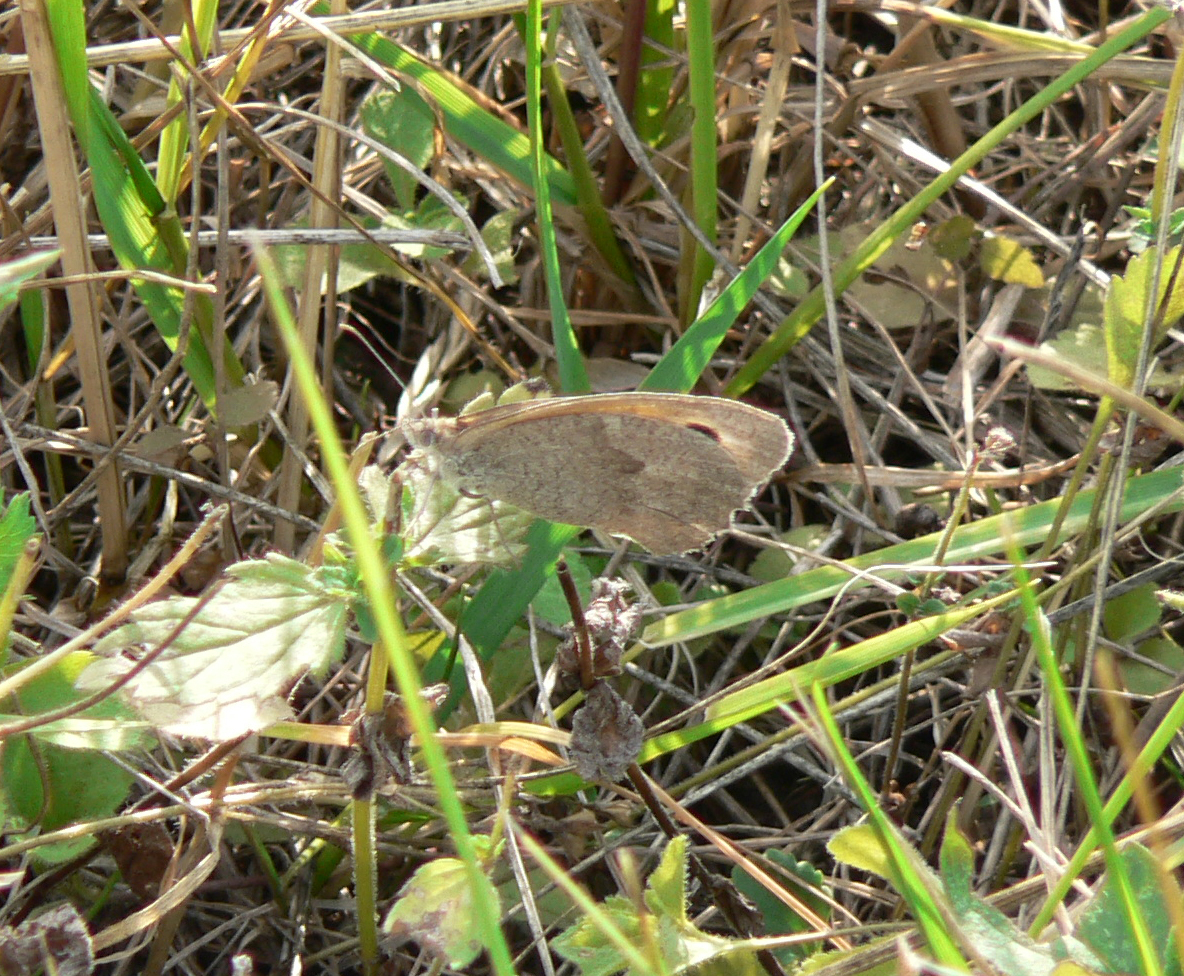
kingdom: Animalia
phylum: Arthropoda
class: Insecta
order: Lepidoptera
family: Nymphalidae
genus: Maniola
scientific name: Maniola jurtina
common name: Meadow brown
